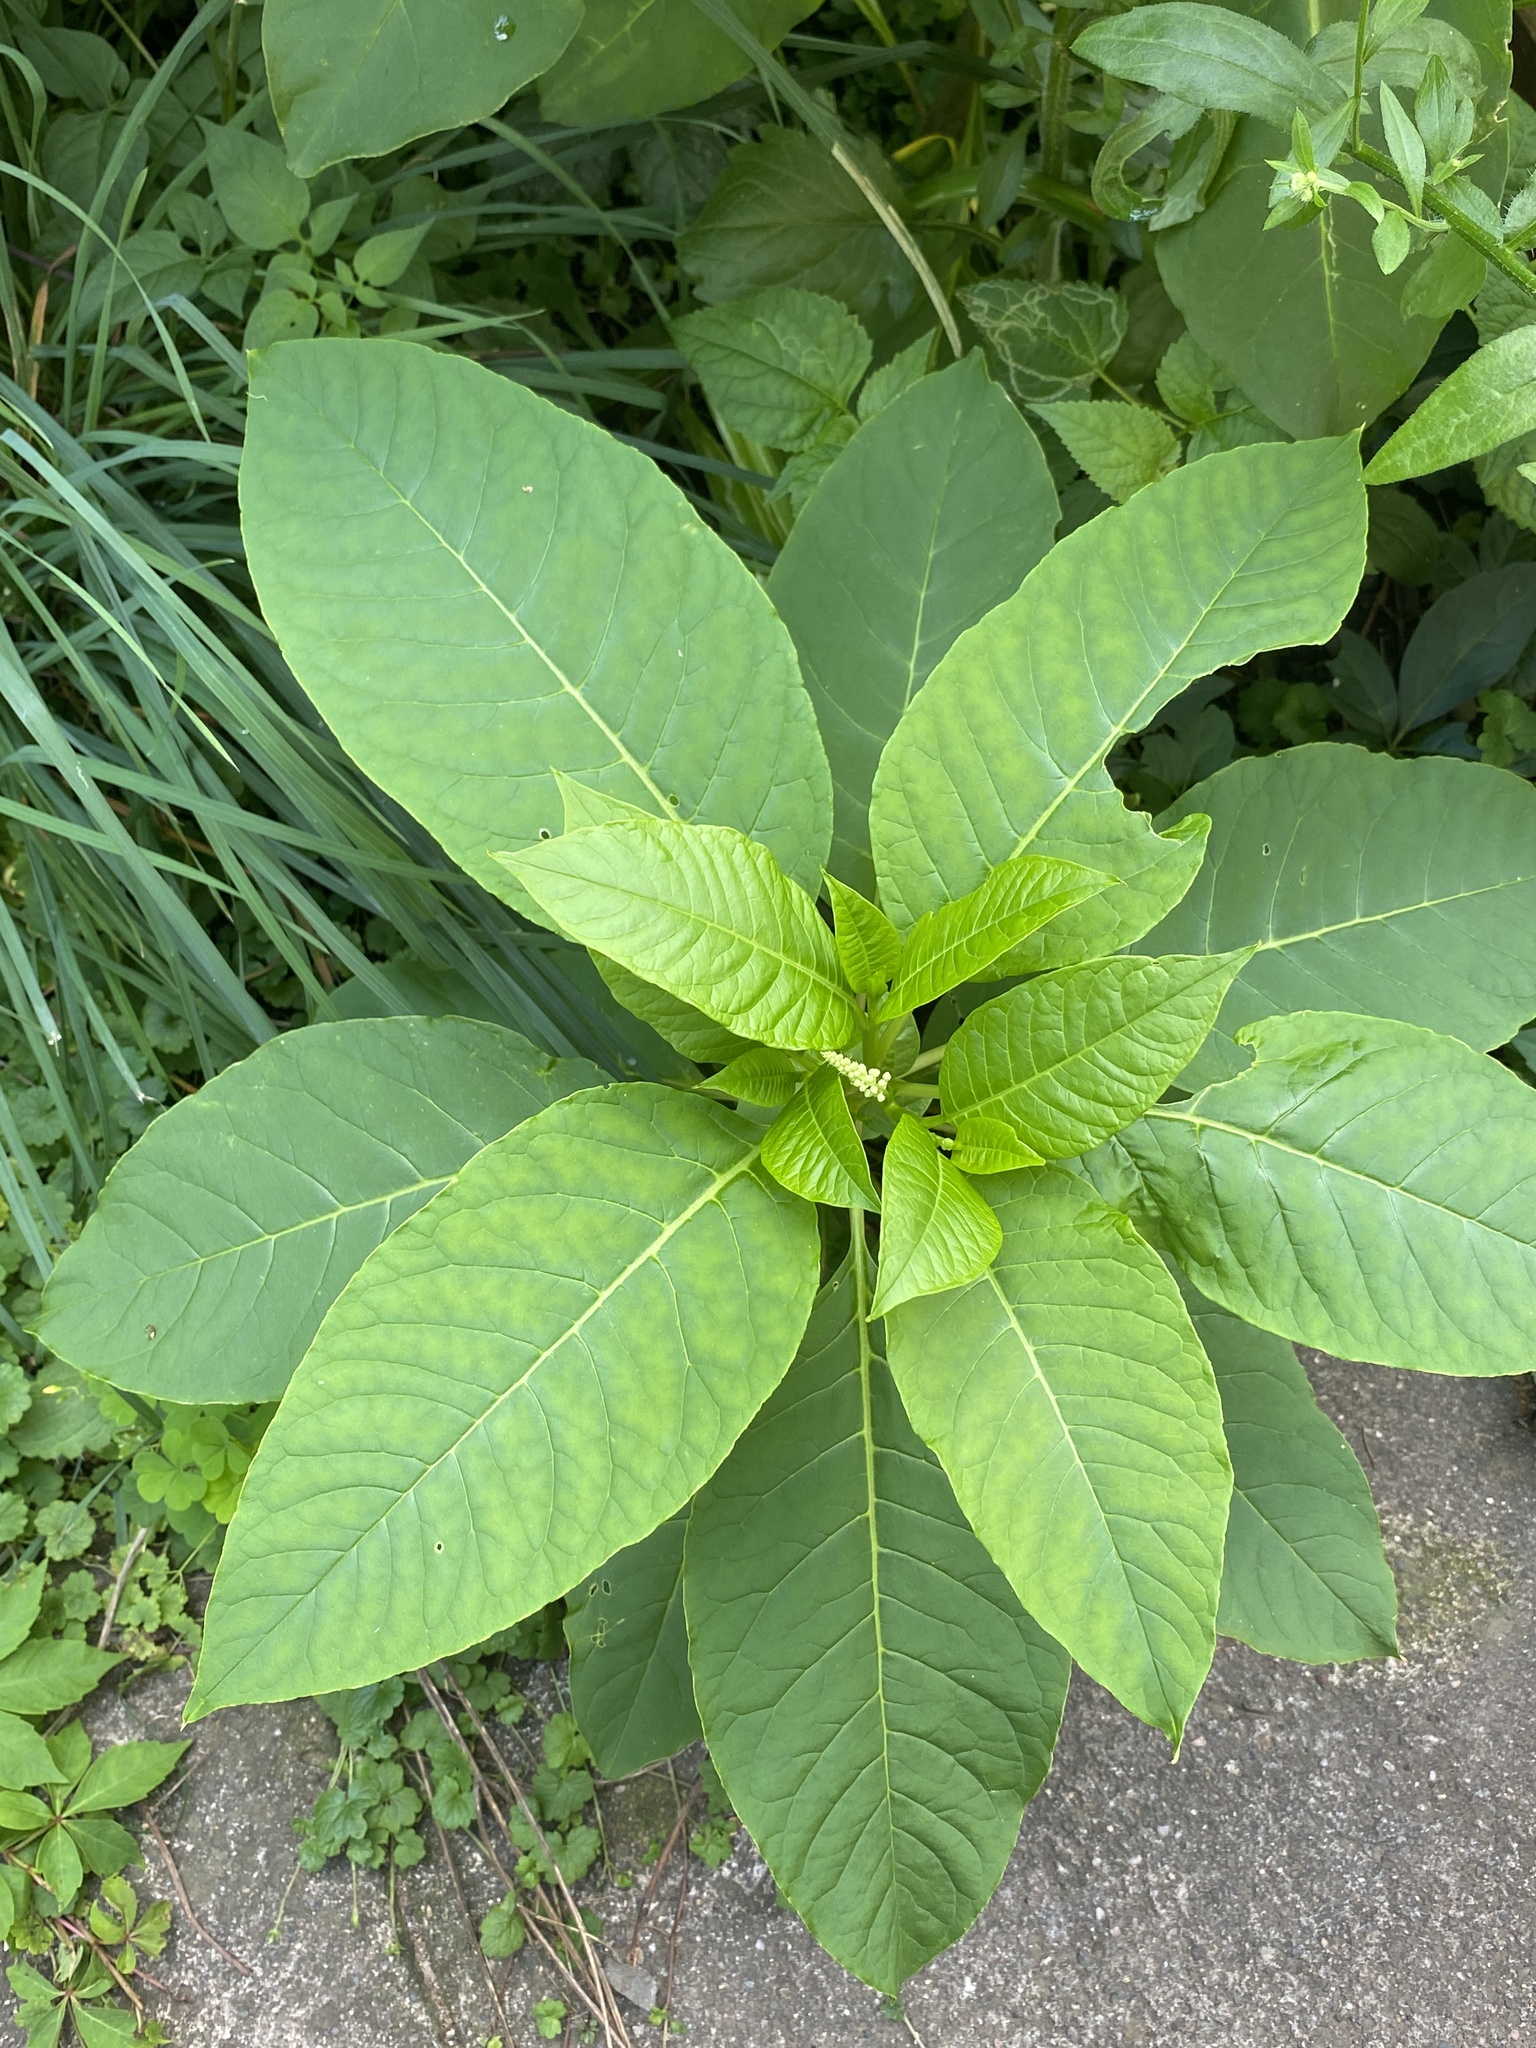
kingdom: Plantae
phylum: Tracheophyta
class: Magnoliopsida
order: Caryophyllales
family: Phytolaccaceae
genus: Phytolacca
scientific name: Phytolacca americana
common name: American pokeweed
